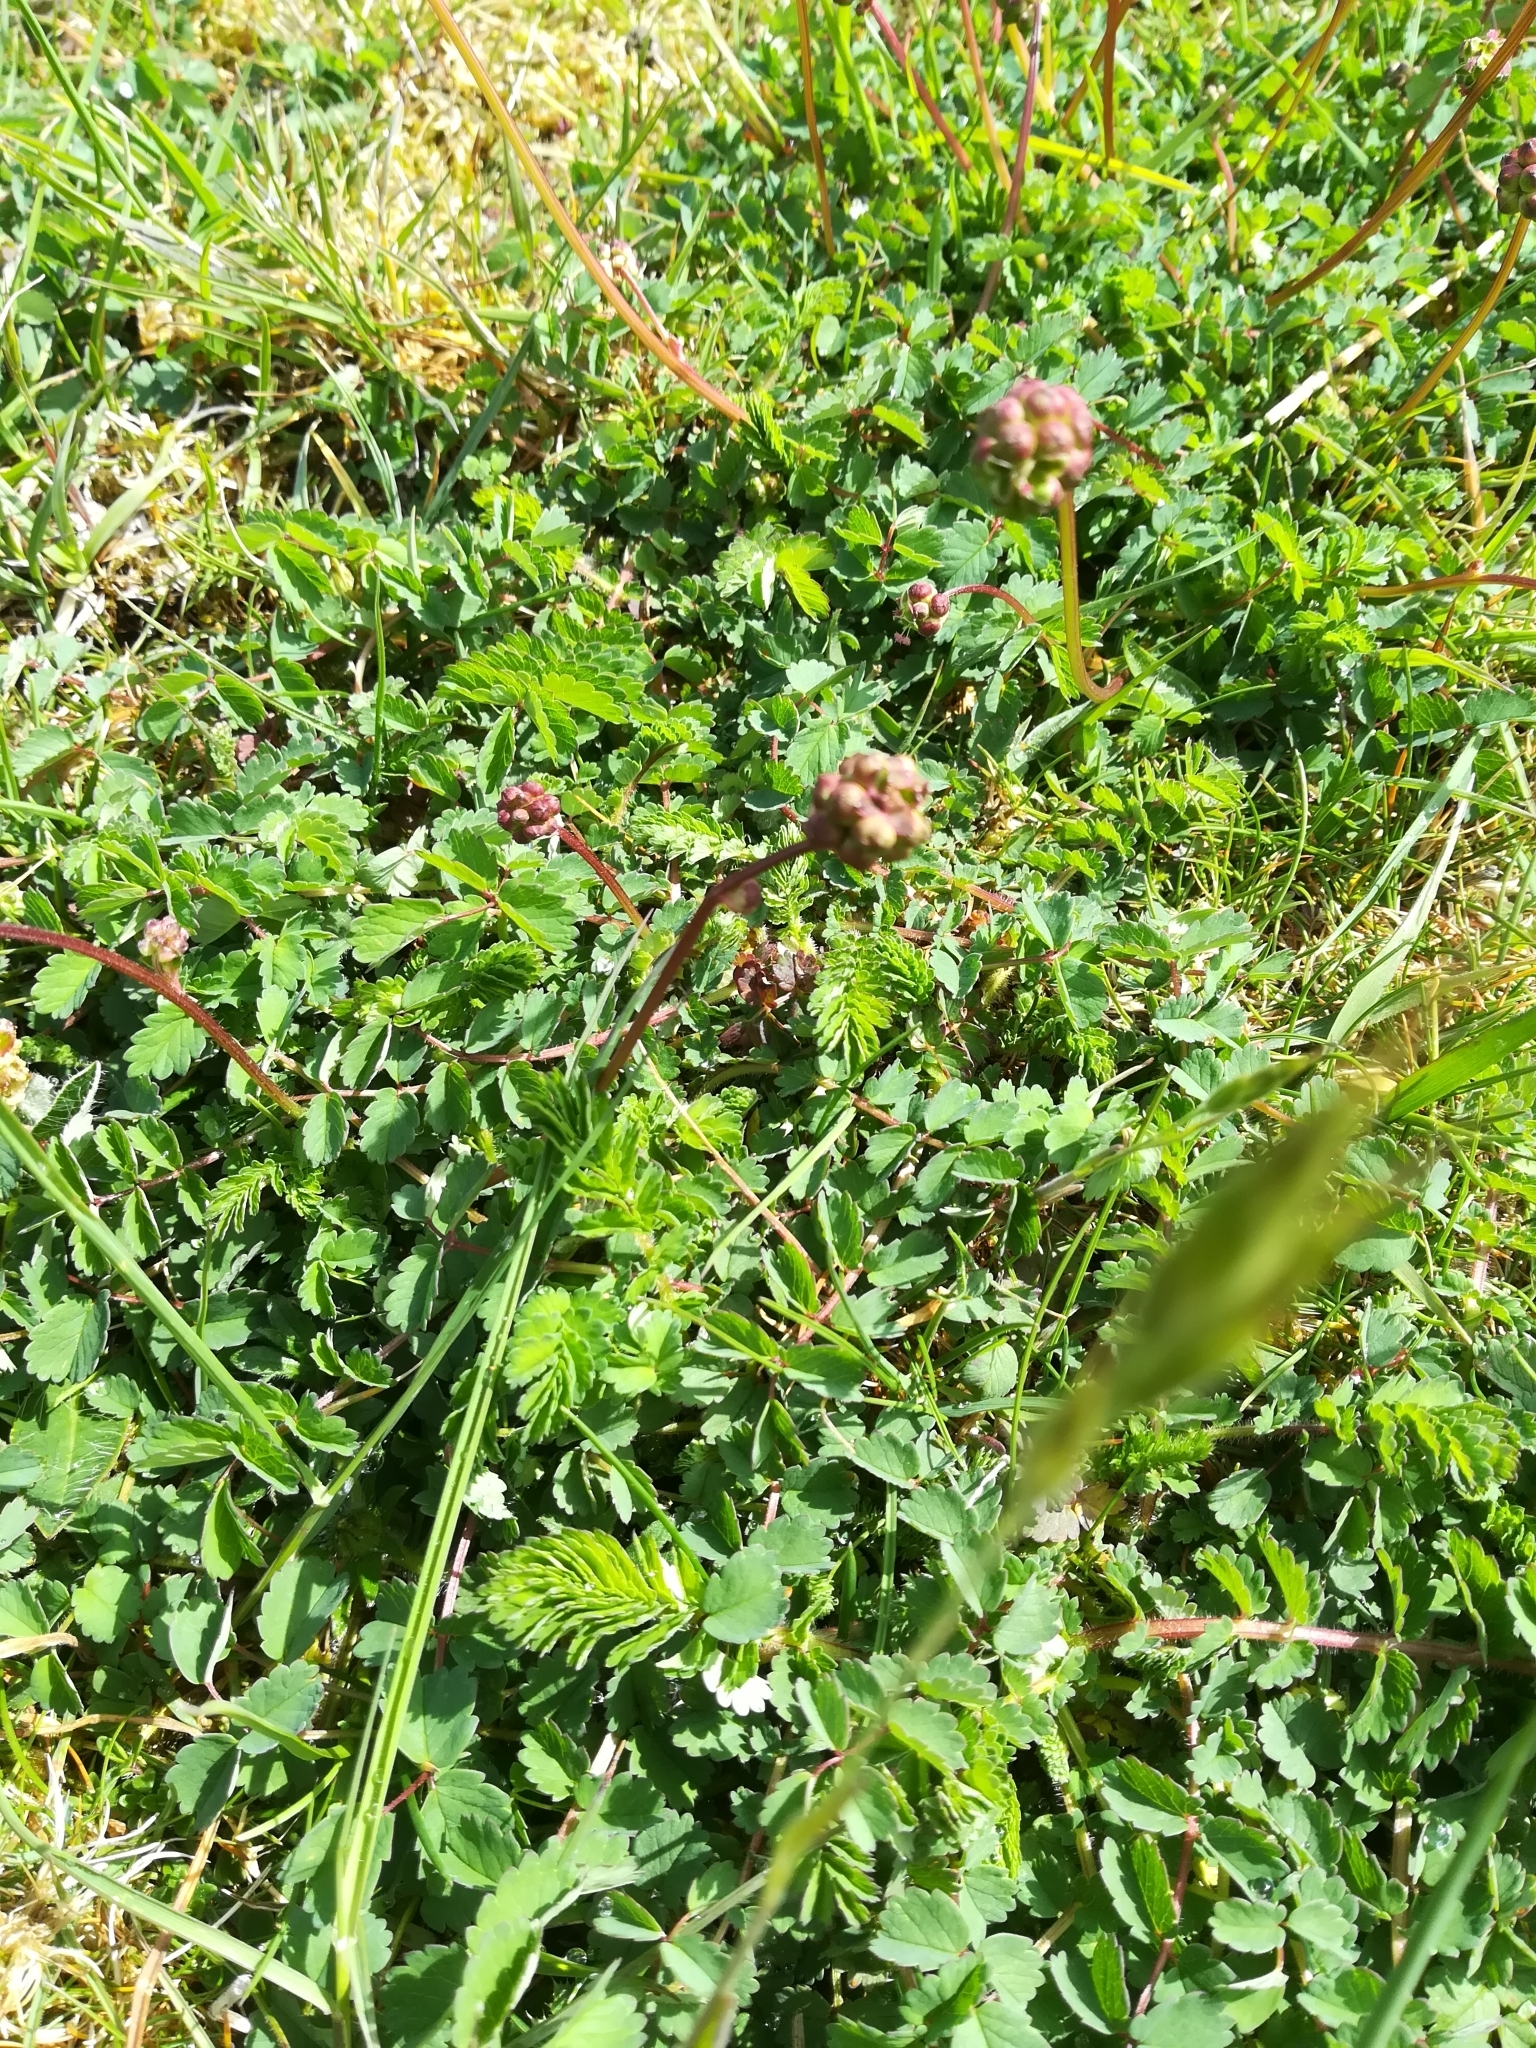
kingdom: Plantae
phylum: Tracheophyta
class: Magnoliopsida
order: Rosales
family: Rosaceae
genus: Poterium
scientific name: Poterium sanguisorba
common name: Salad burnet
